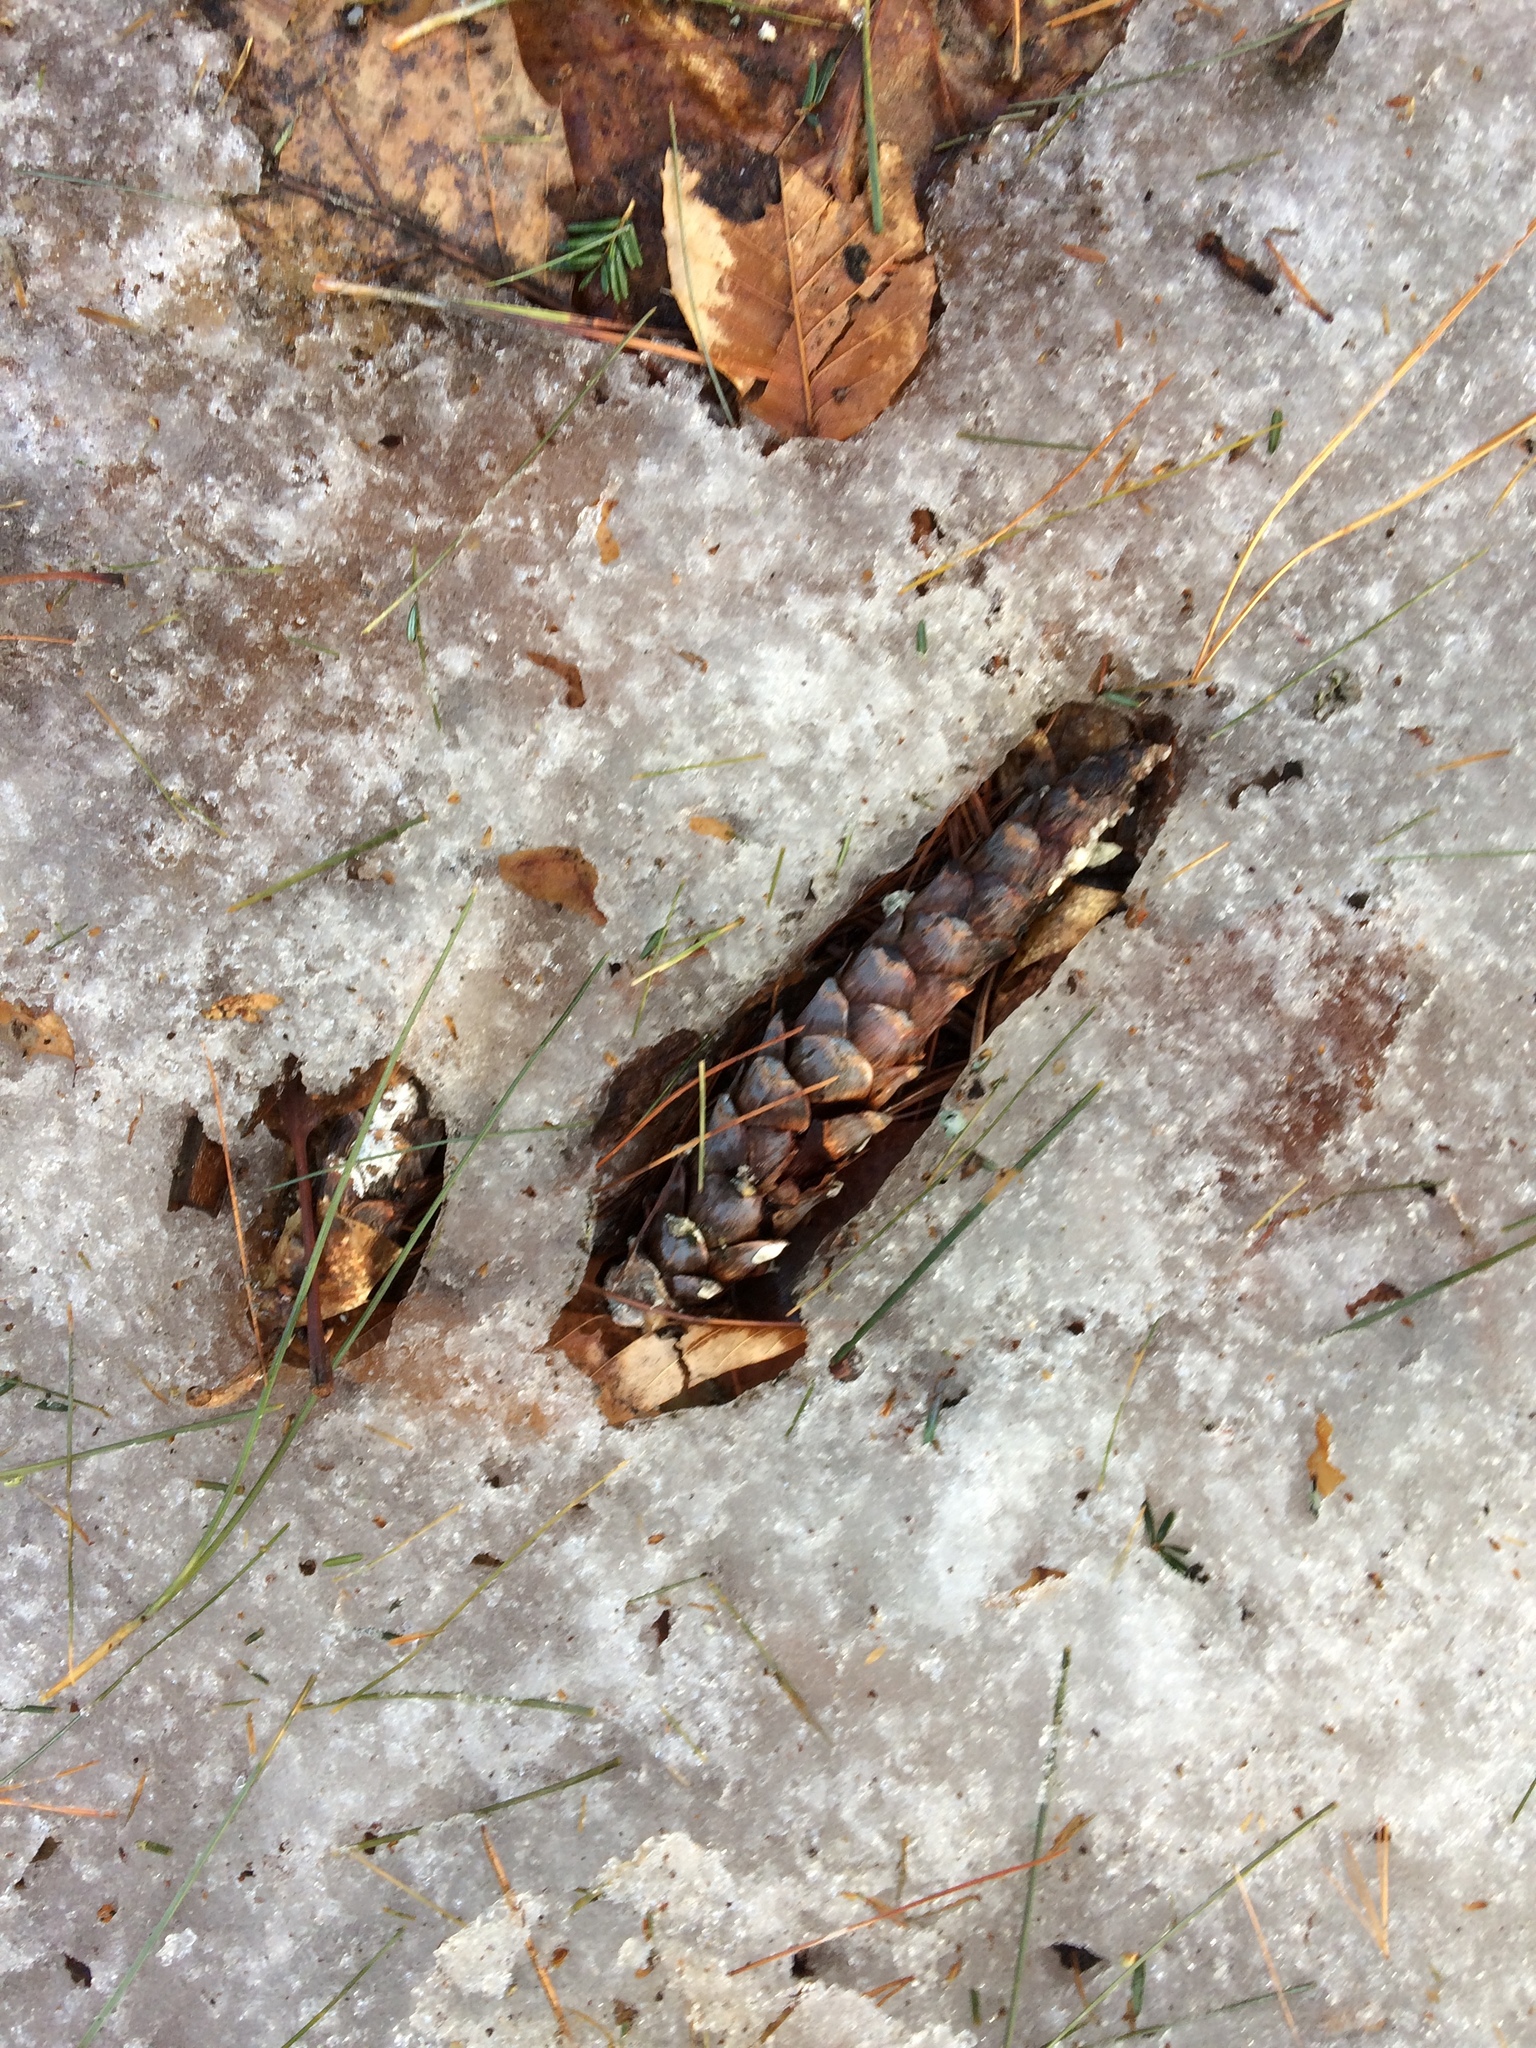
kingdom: Plantae
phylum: Tracheophyta
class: Pinopsida
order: Pinales
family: Pinaceae
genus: Pinus
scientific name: Pinus strobus
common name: Weymouth pine
